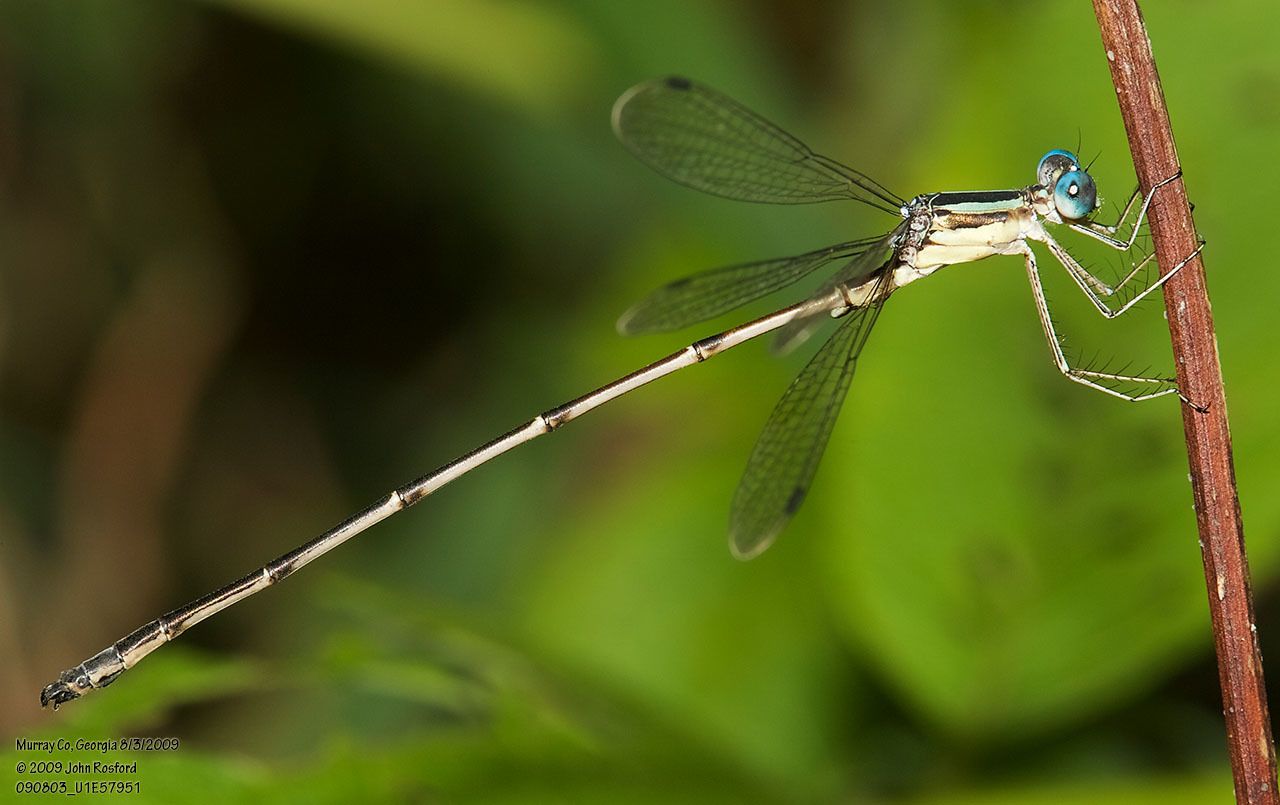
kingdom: Animalia
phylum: Arthropoda
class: Insecta
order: Odonata
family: Lestidae
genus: Lestes
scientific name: Lestes rectangularis
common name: Slender spreadwing
